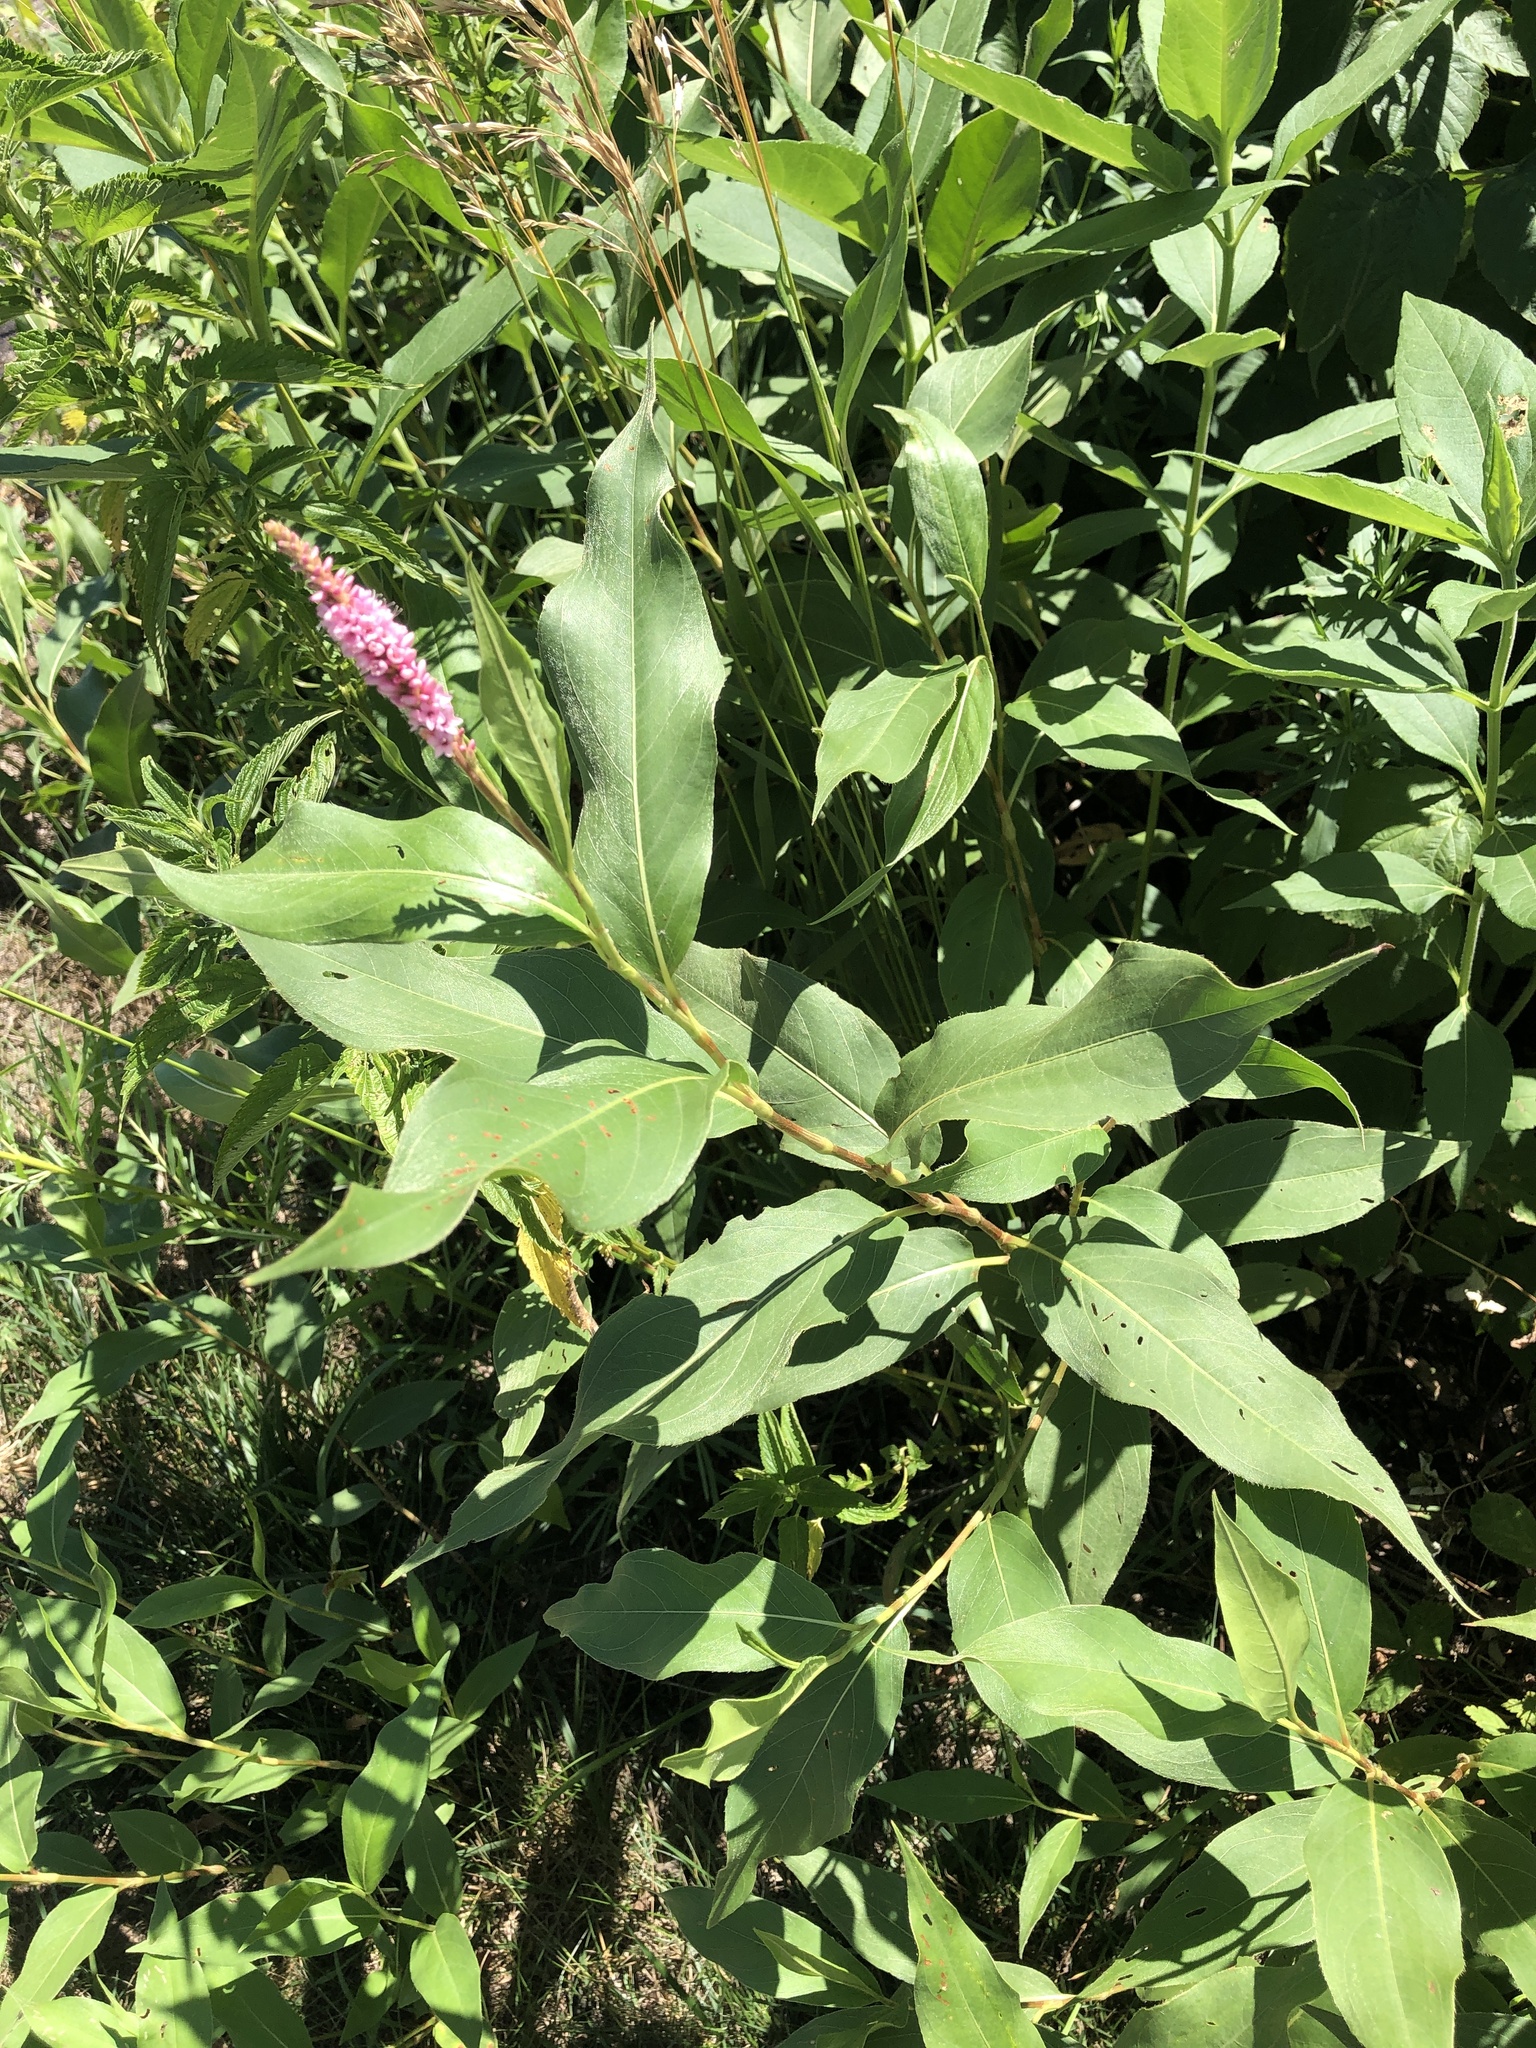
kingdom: Plantae
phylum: Tracheophyta
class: Magnoliopsida
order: Caryophyllales
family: Polygonaceae
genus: Persicaria
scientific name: Persicaria amphibia
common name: Amphibious bistort
